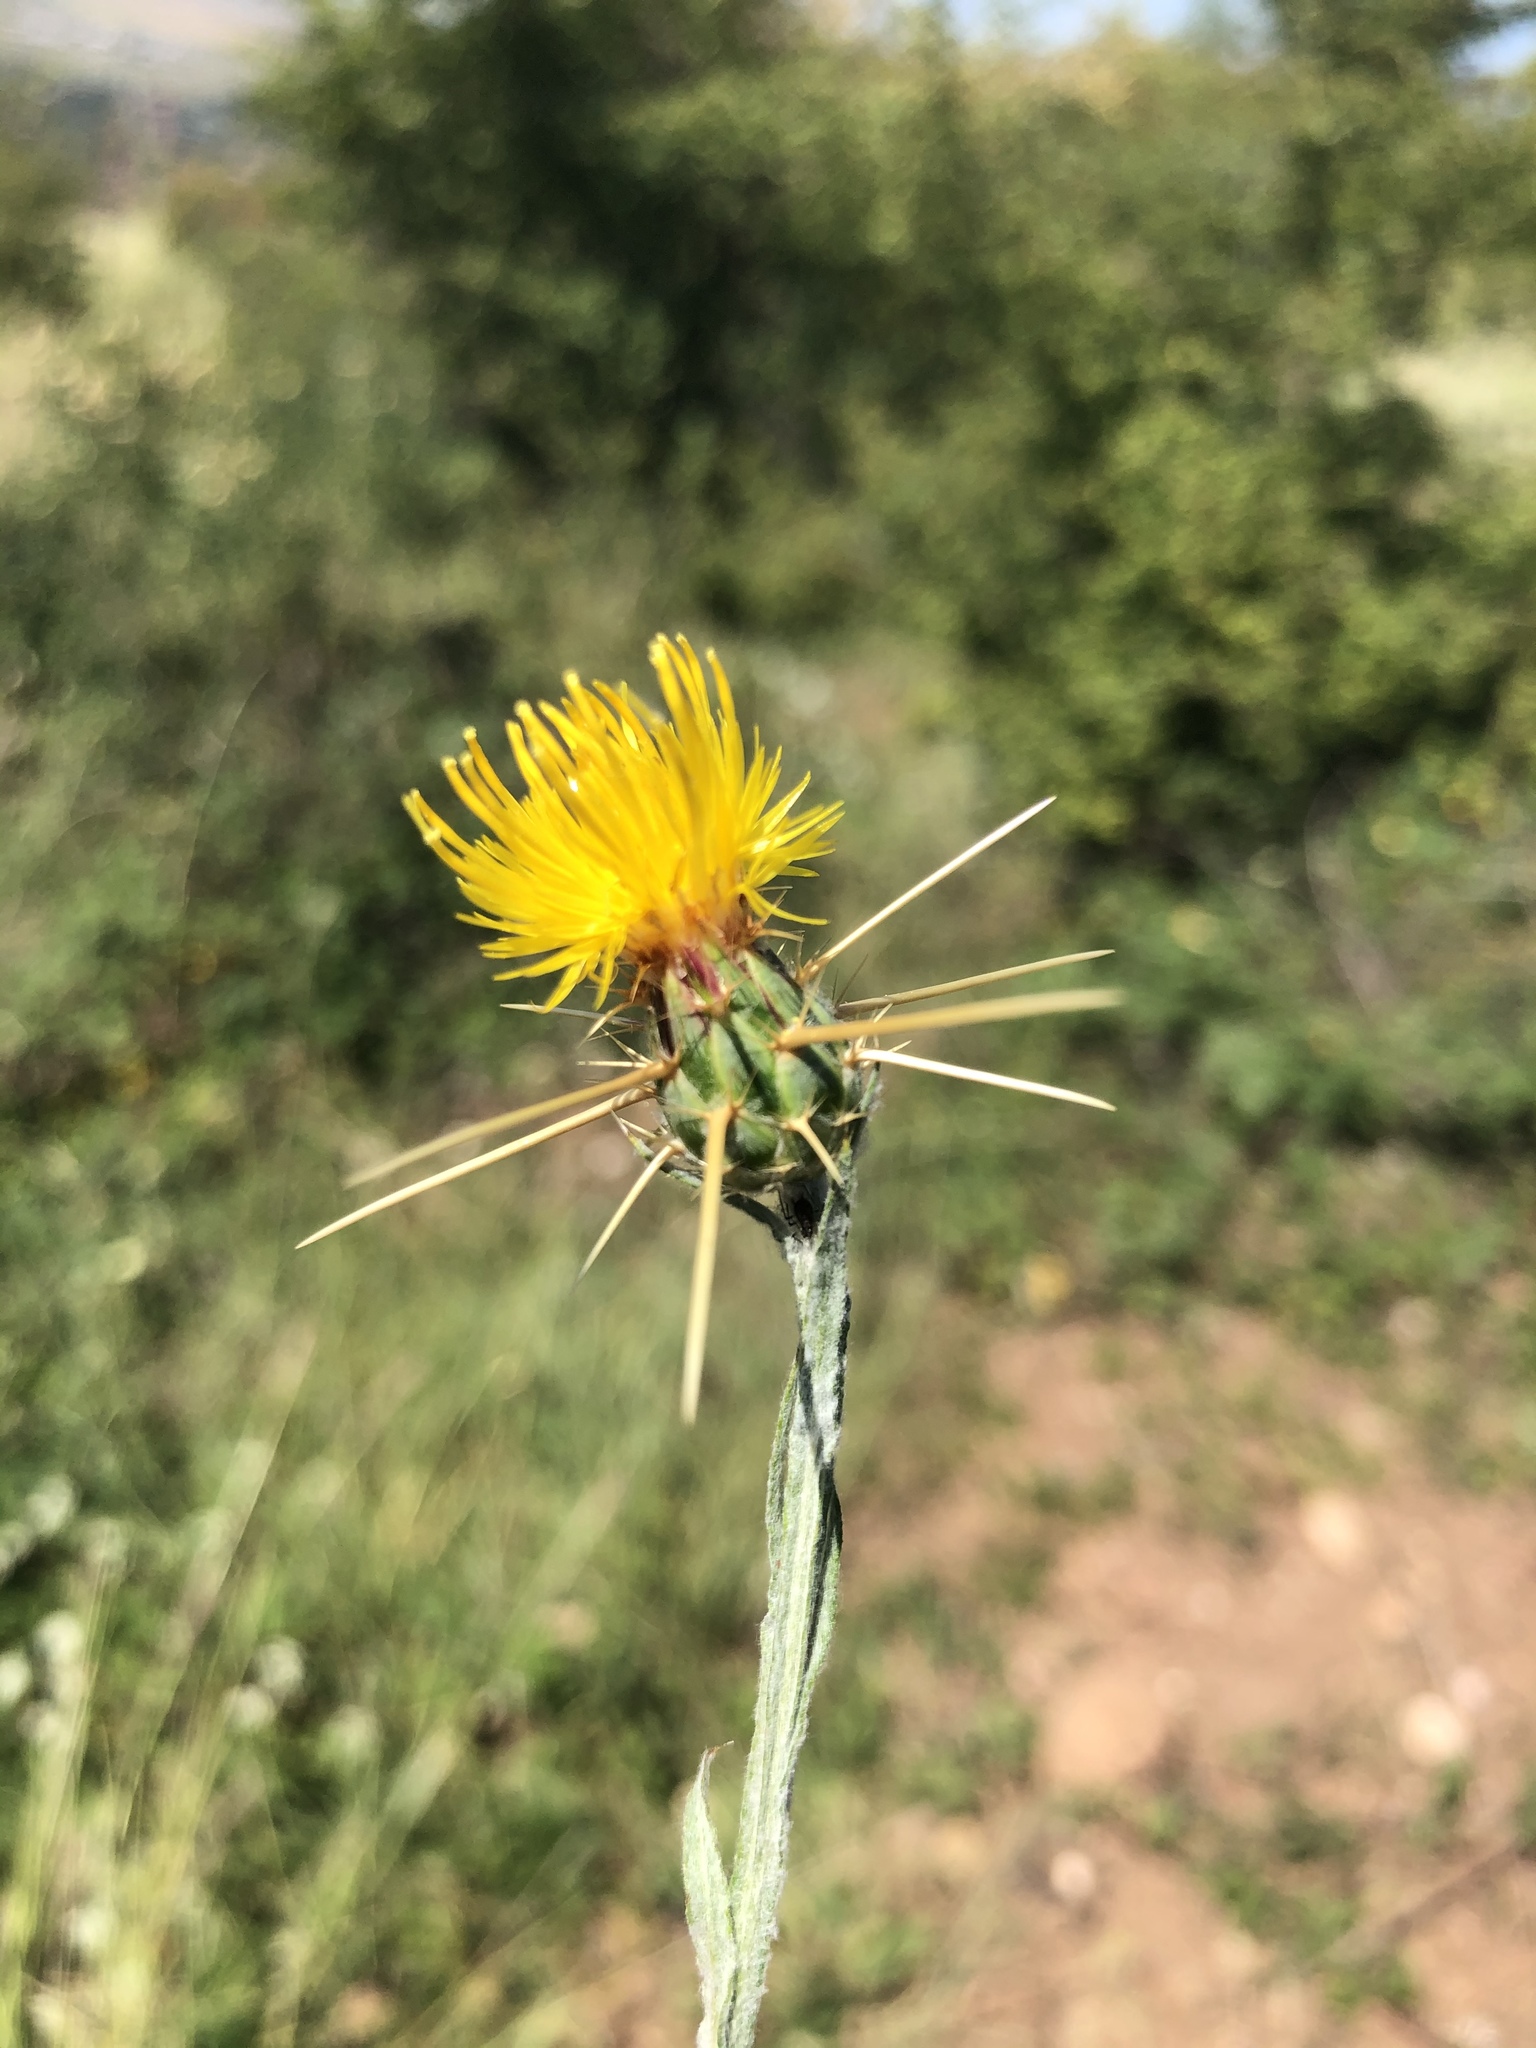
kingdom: Plantae
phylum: Tracheophyta
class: Magnoliopsida
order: Asterales
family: Asteraceae
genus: Centaurea
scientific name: Centaurea solstitialis
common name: Yellow star-thistle
